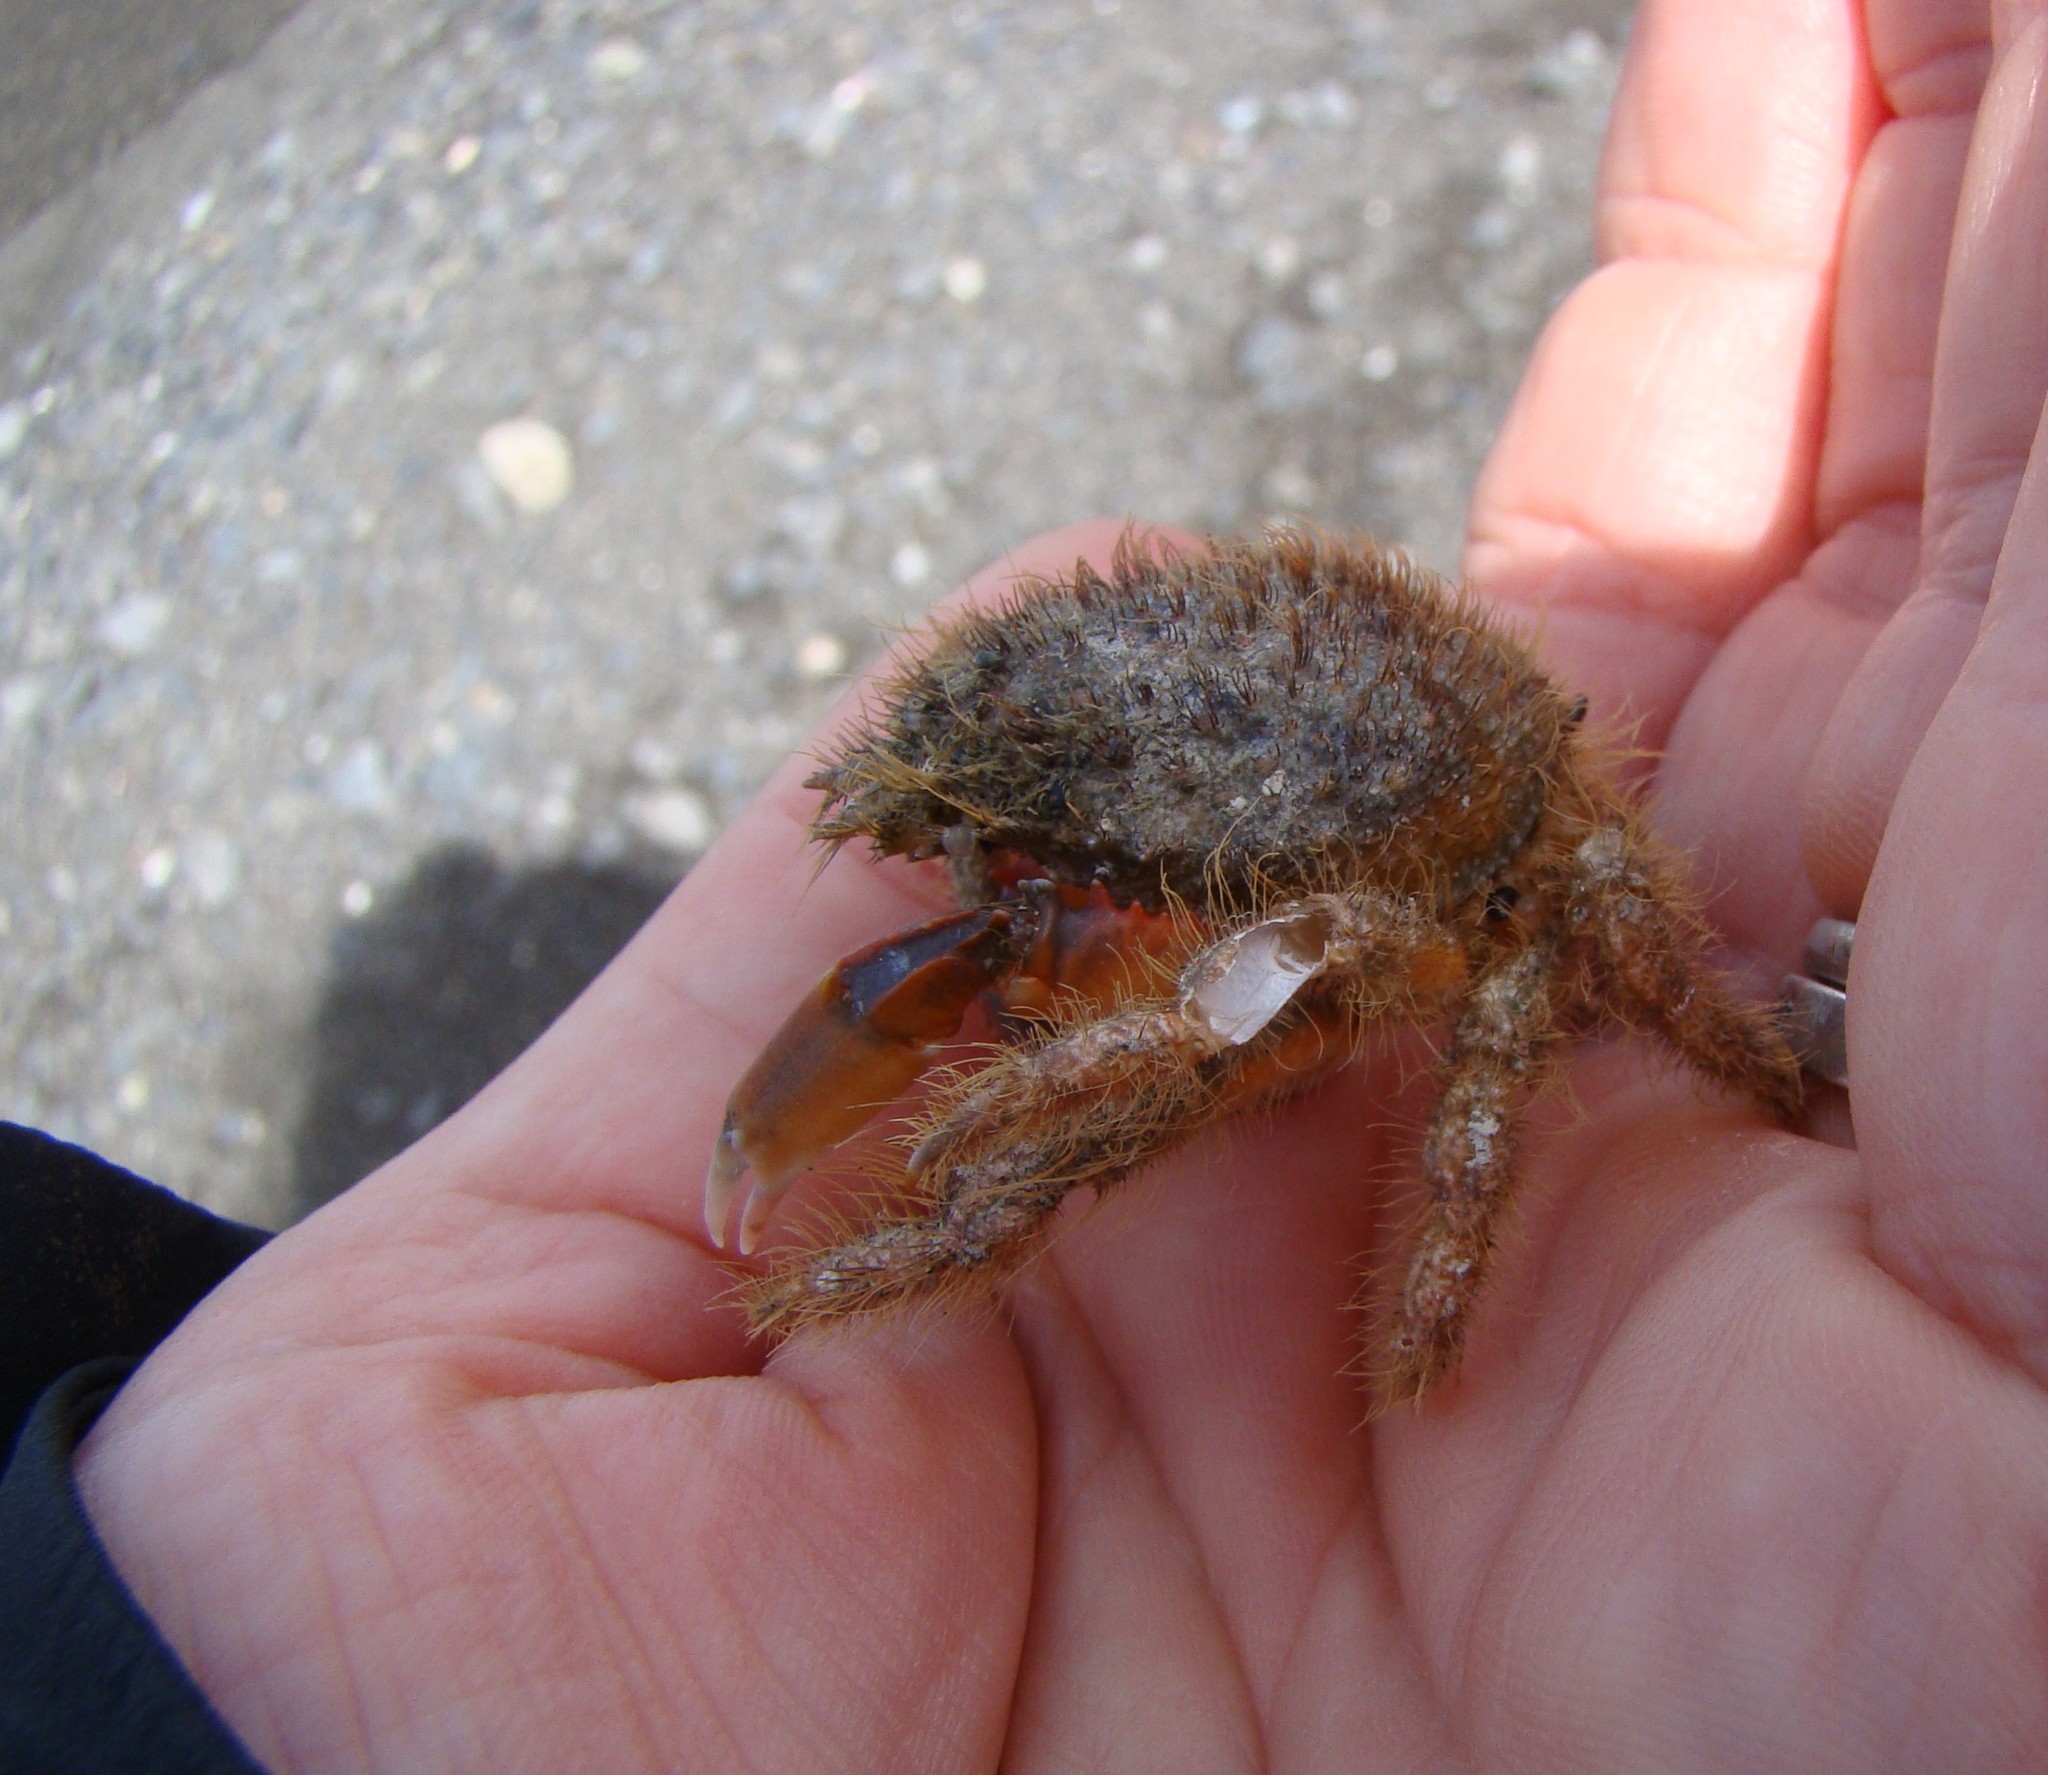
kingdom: Animalia
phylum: Arthropoda
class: Malacostraca
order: Decapoda
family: Majidae
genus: Notomithrax
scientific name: Notomithrax ursus
